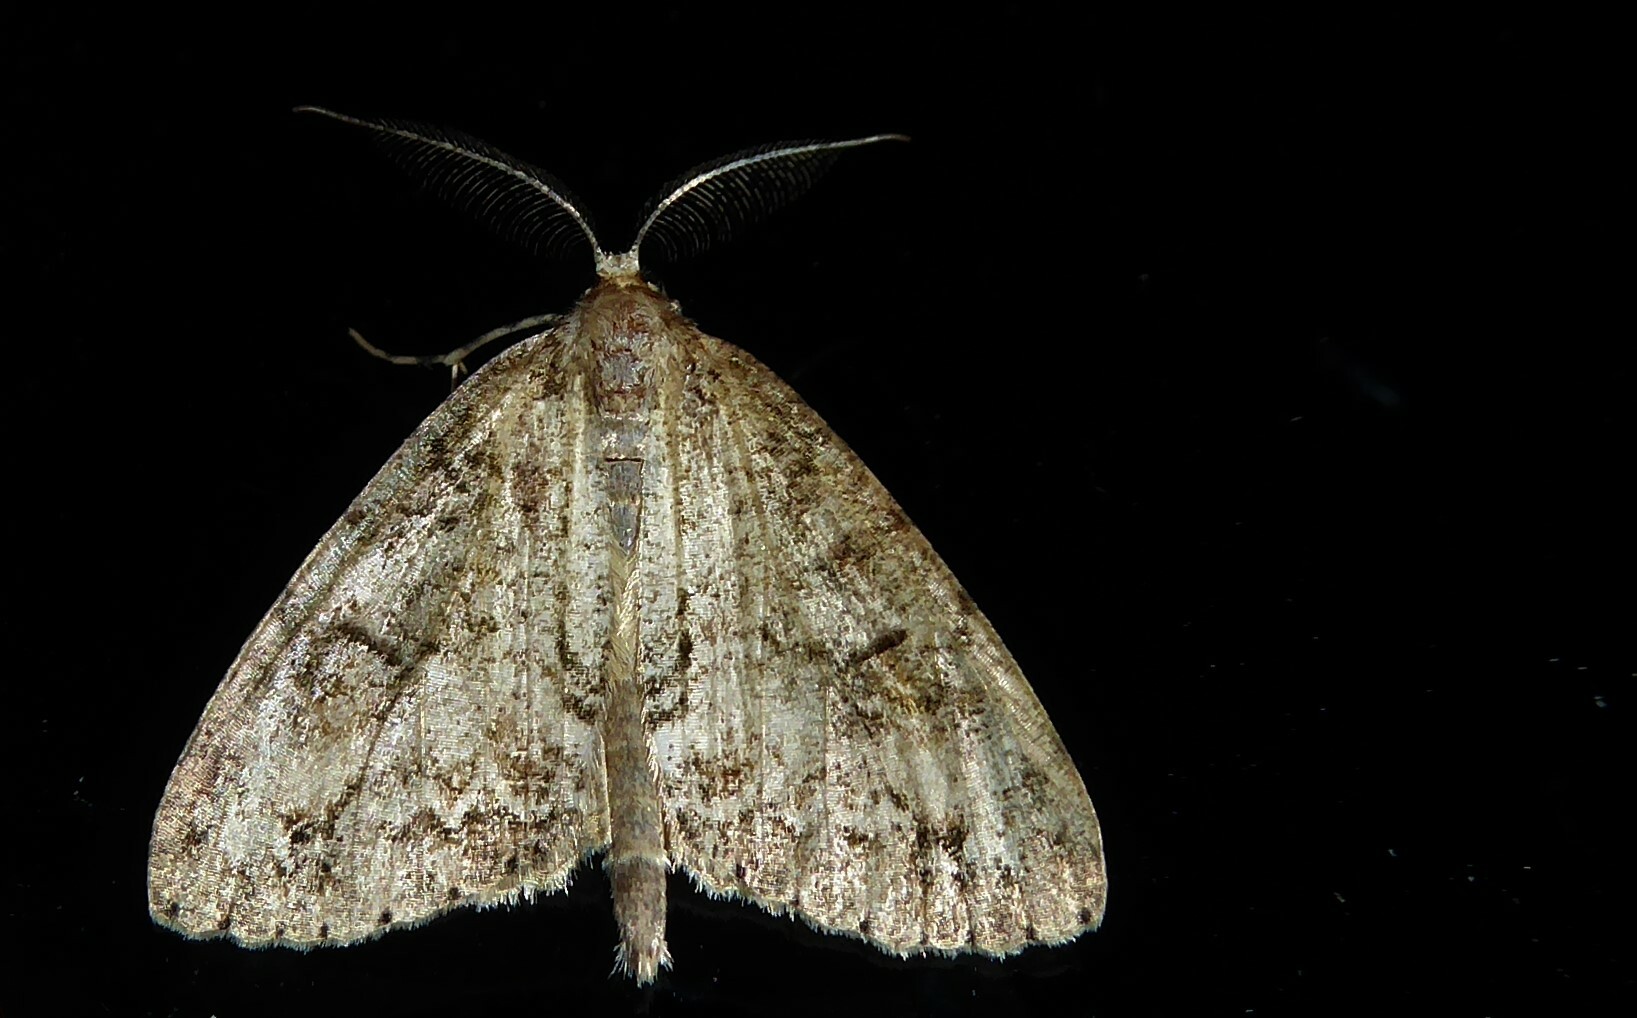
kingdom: Animalia
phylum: Arthropoda
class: Insecta
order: Lepidoptera
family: Geometridae
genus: Pseudocoremia
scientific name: Pseudocoremia suavis
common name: Common forest looper
